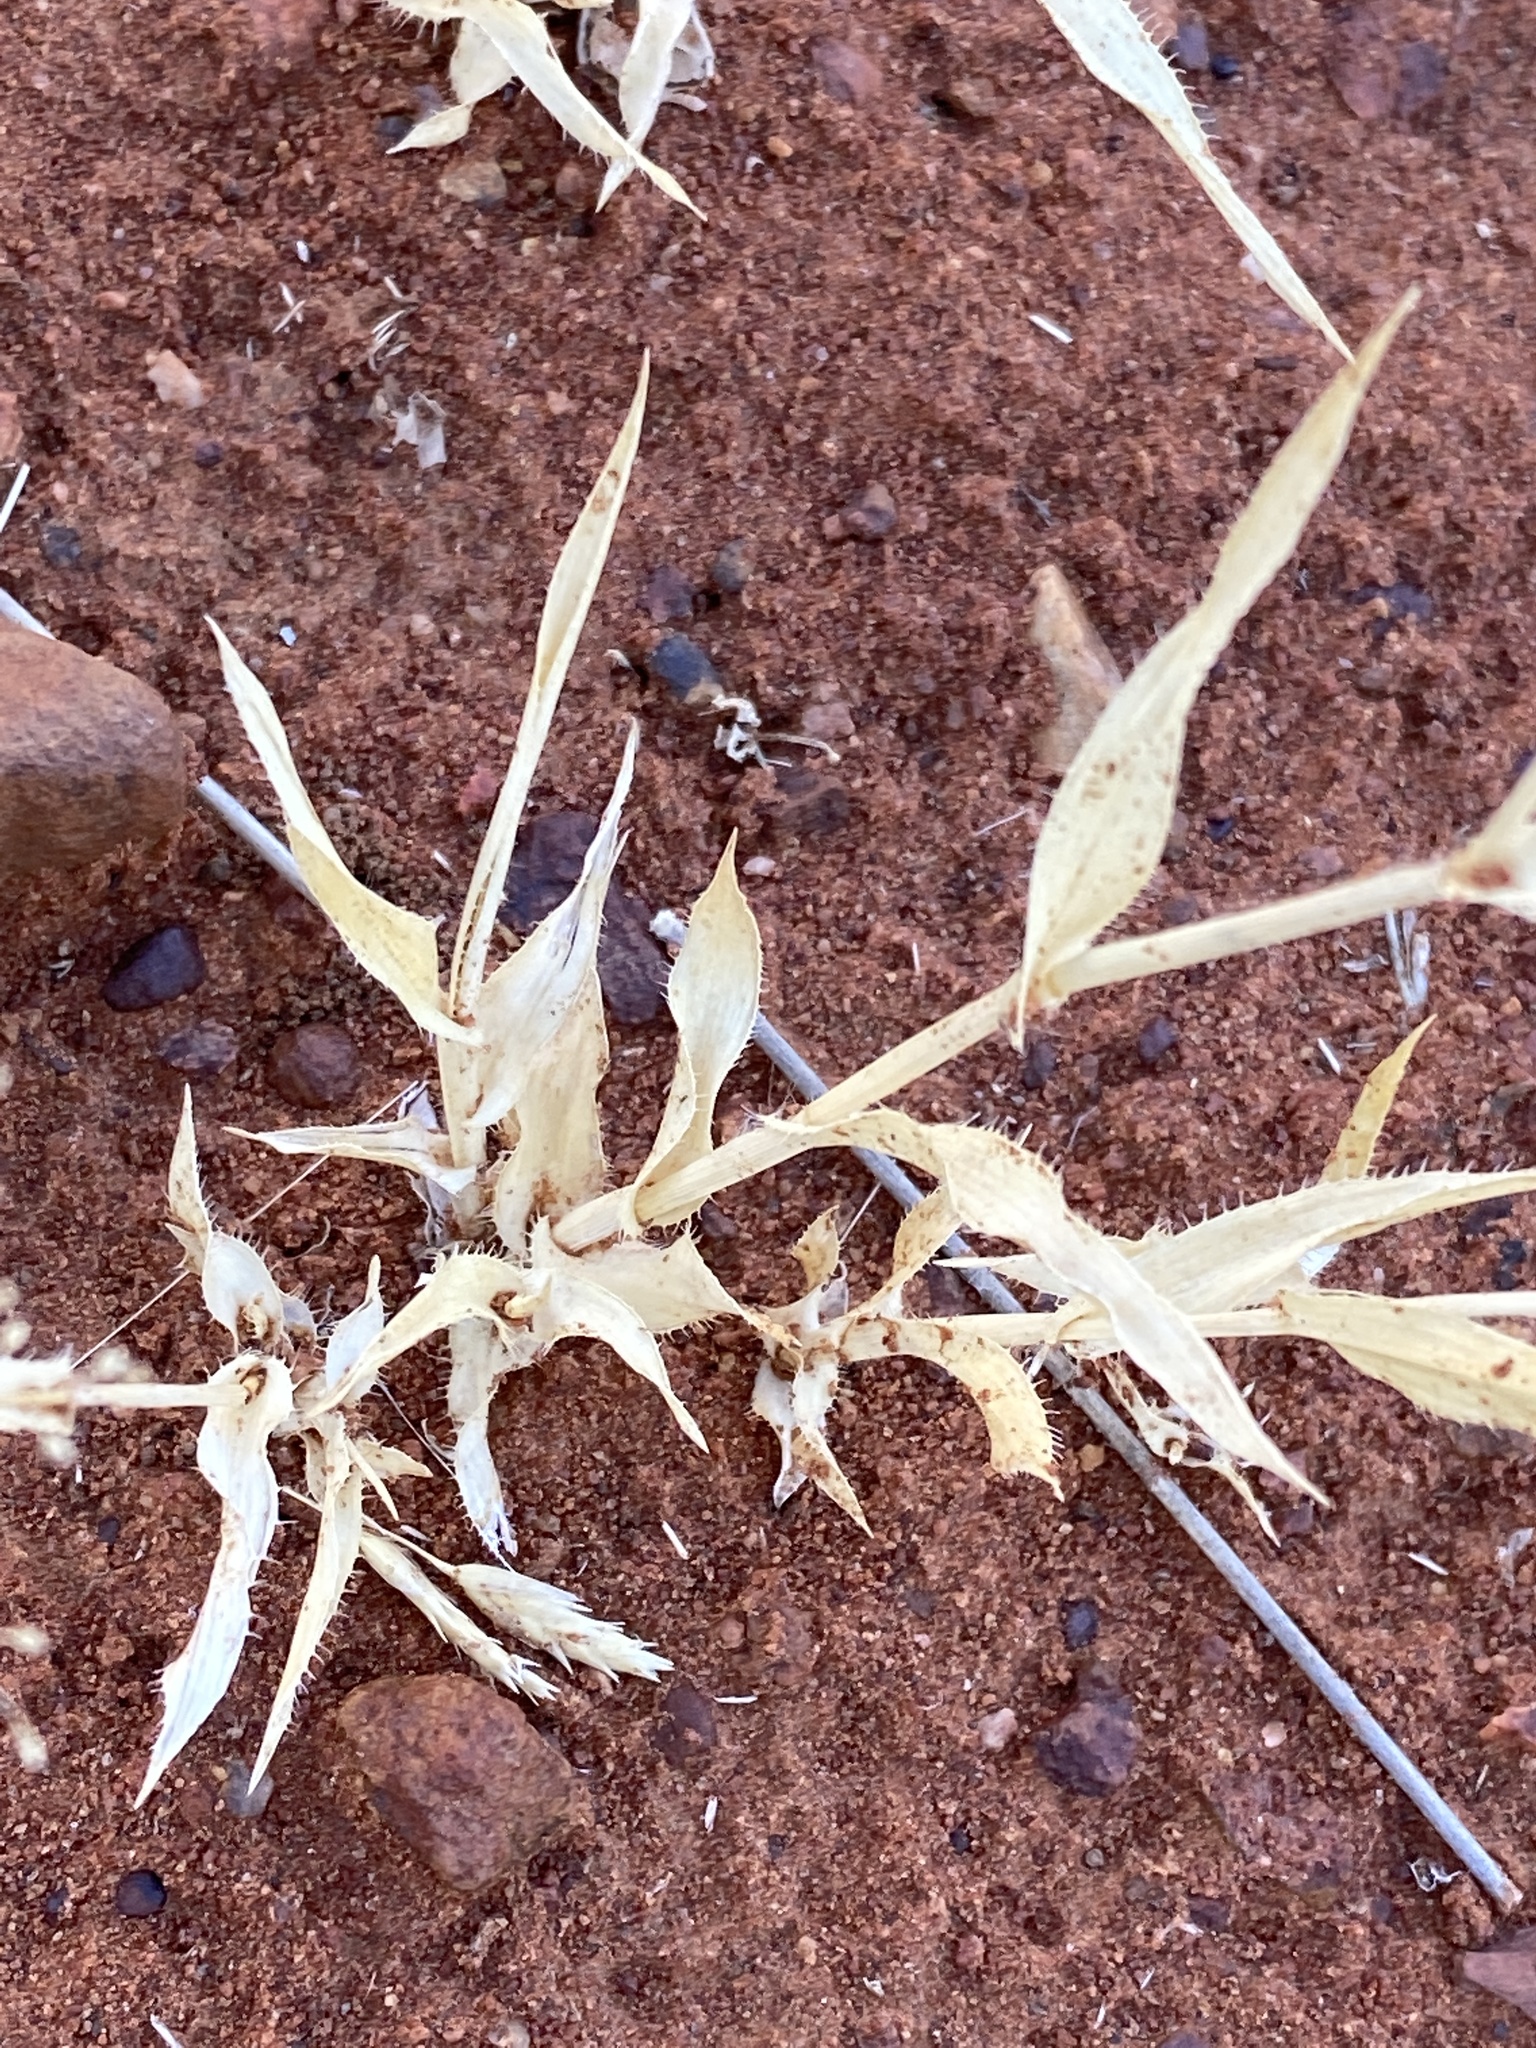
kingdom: Plantae
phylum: Tracheophyta
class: Liliopsida
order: Poales
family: Poaceae
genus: Sporobolus
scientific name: Sporobolus australasicus
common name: Australian dropseed
